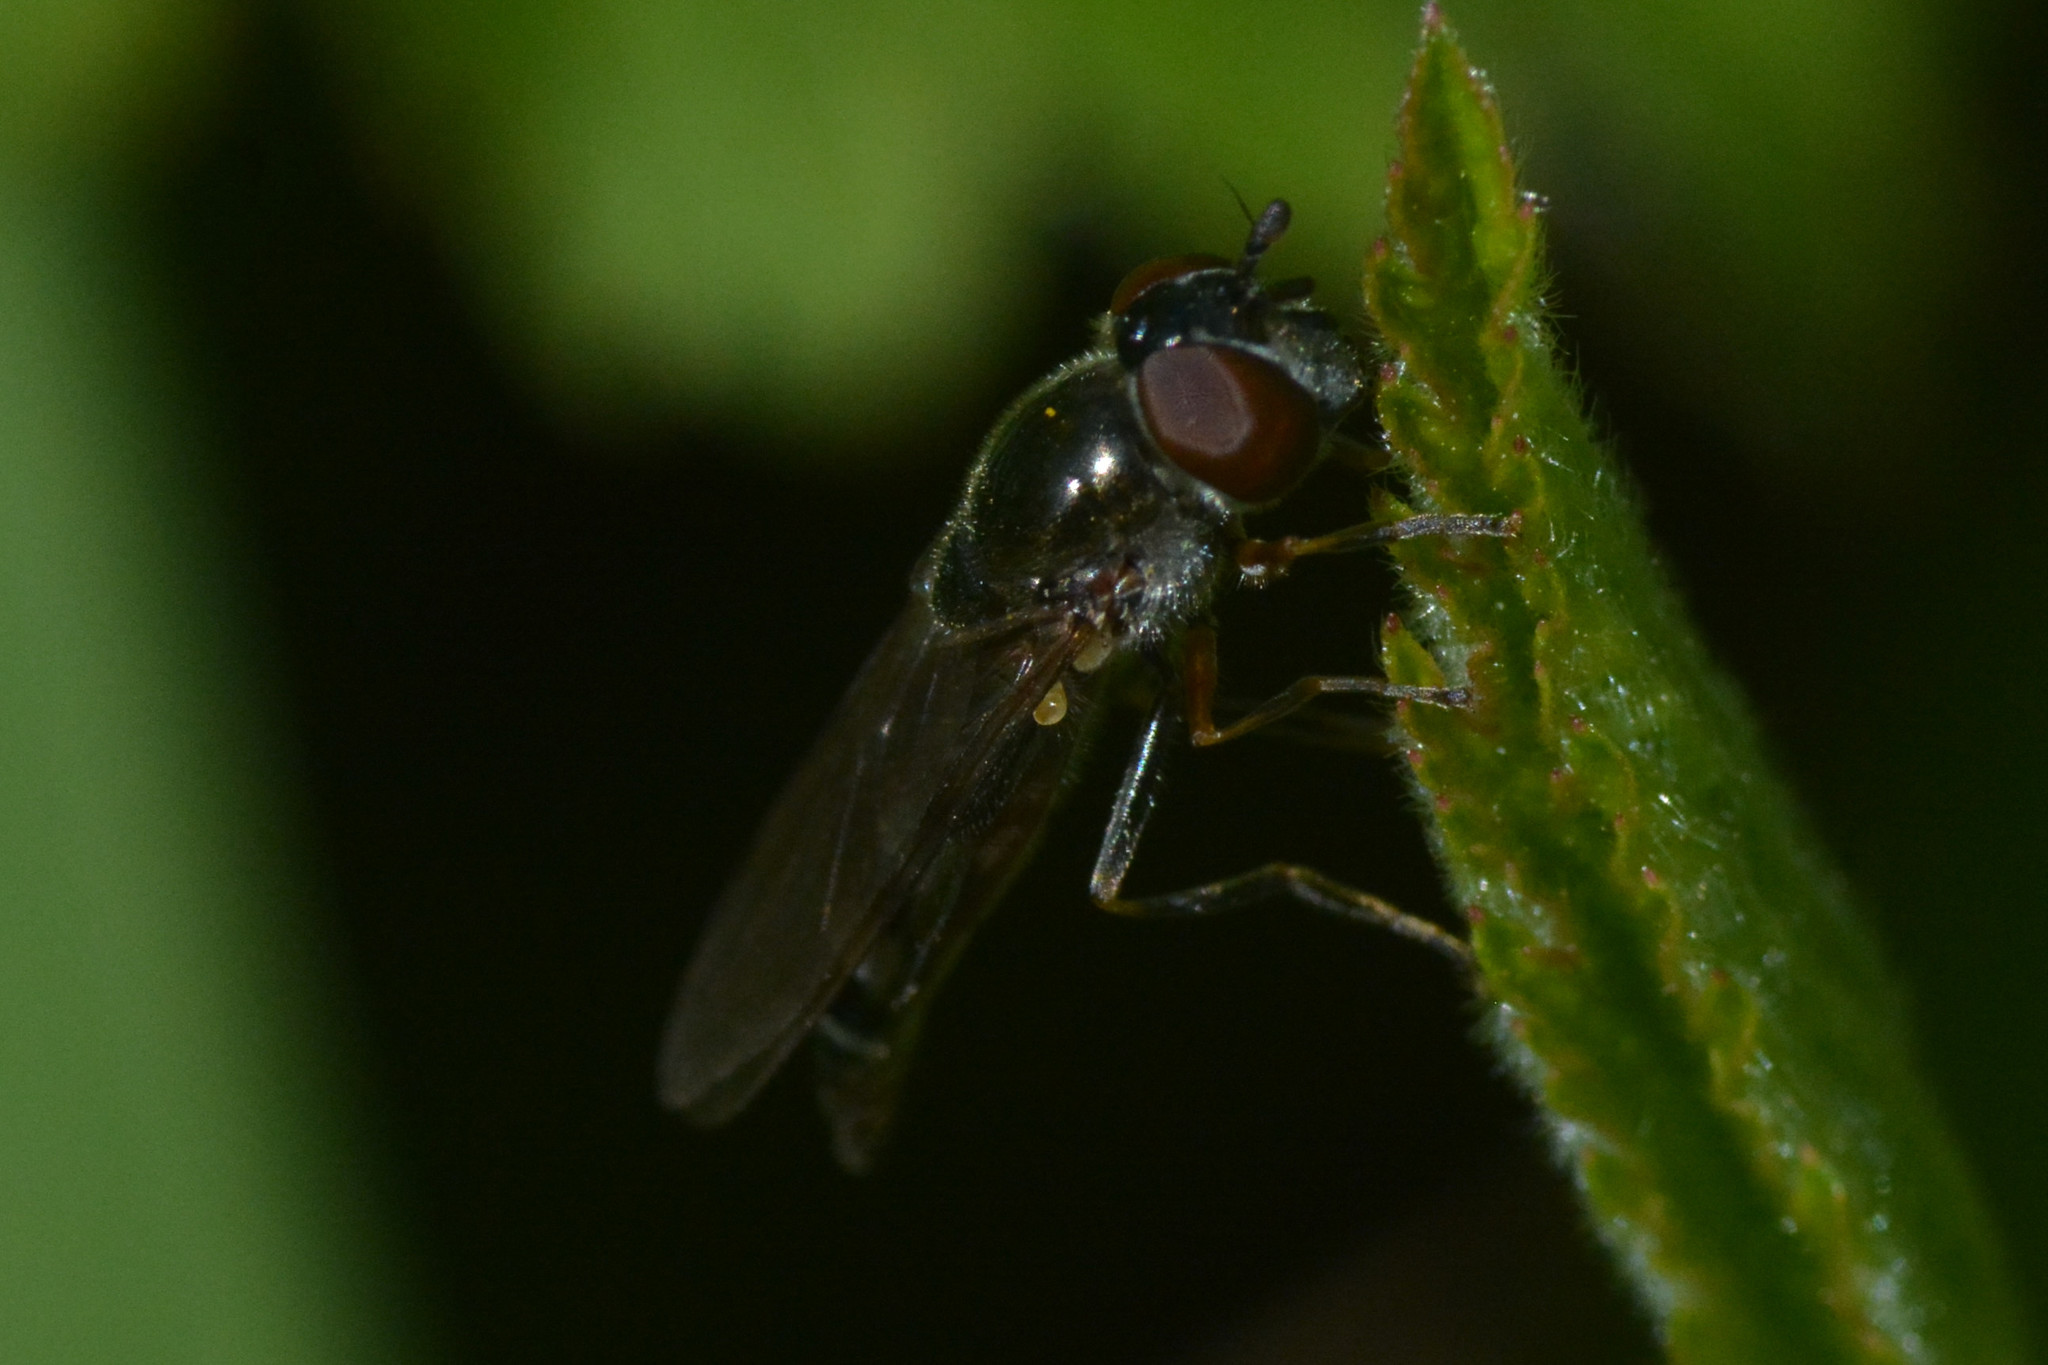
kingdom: Animalia
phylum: Arthropoda
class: Insecta
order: Diptera
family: Syrphidae
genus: Platycheirus
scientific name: Platycheirus albimanus
